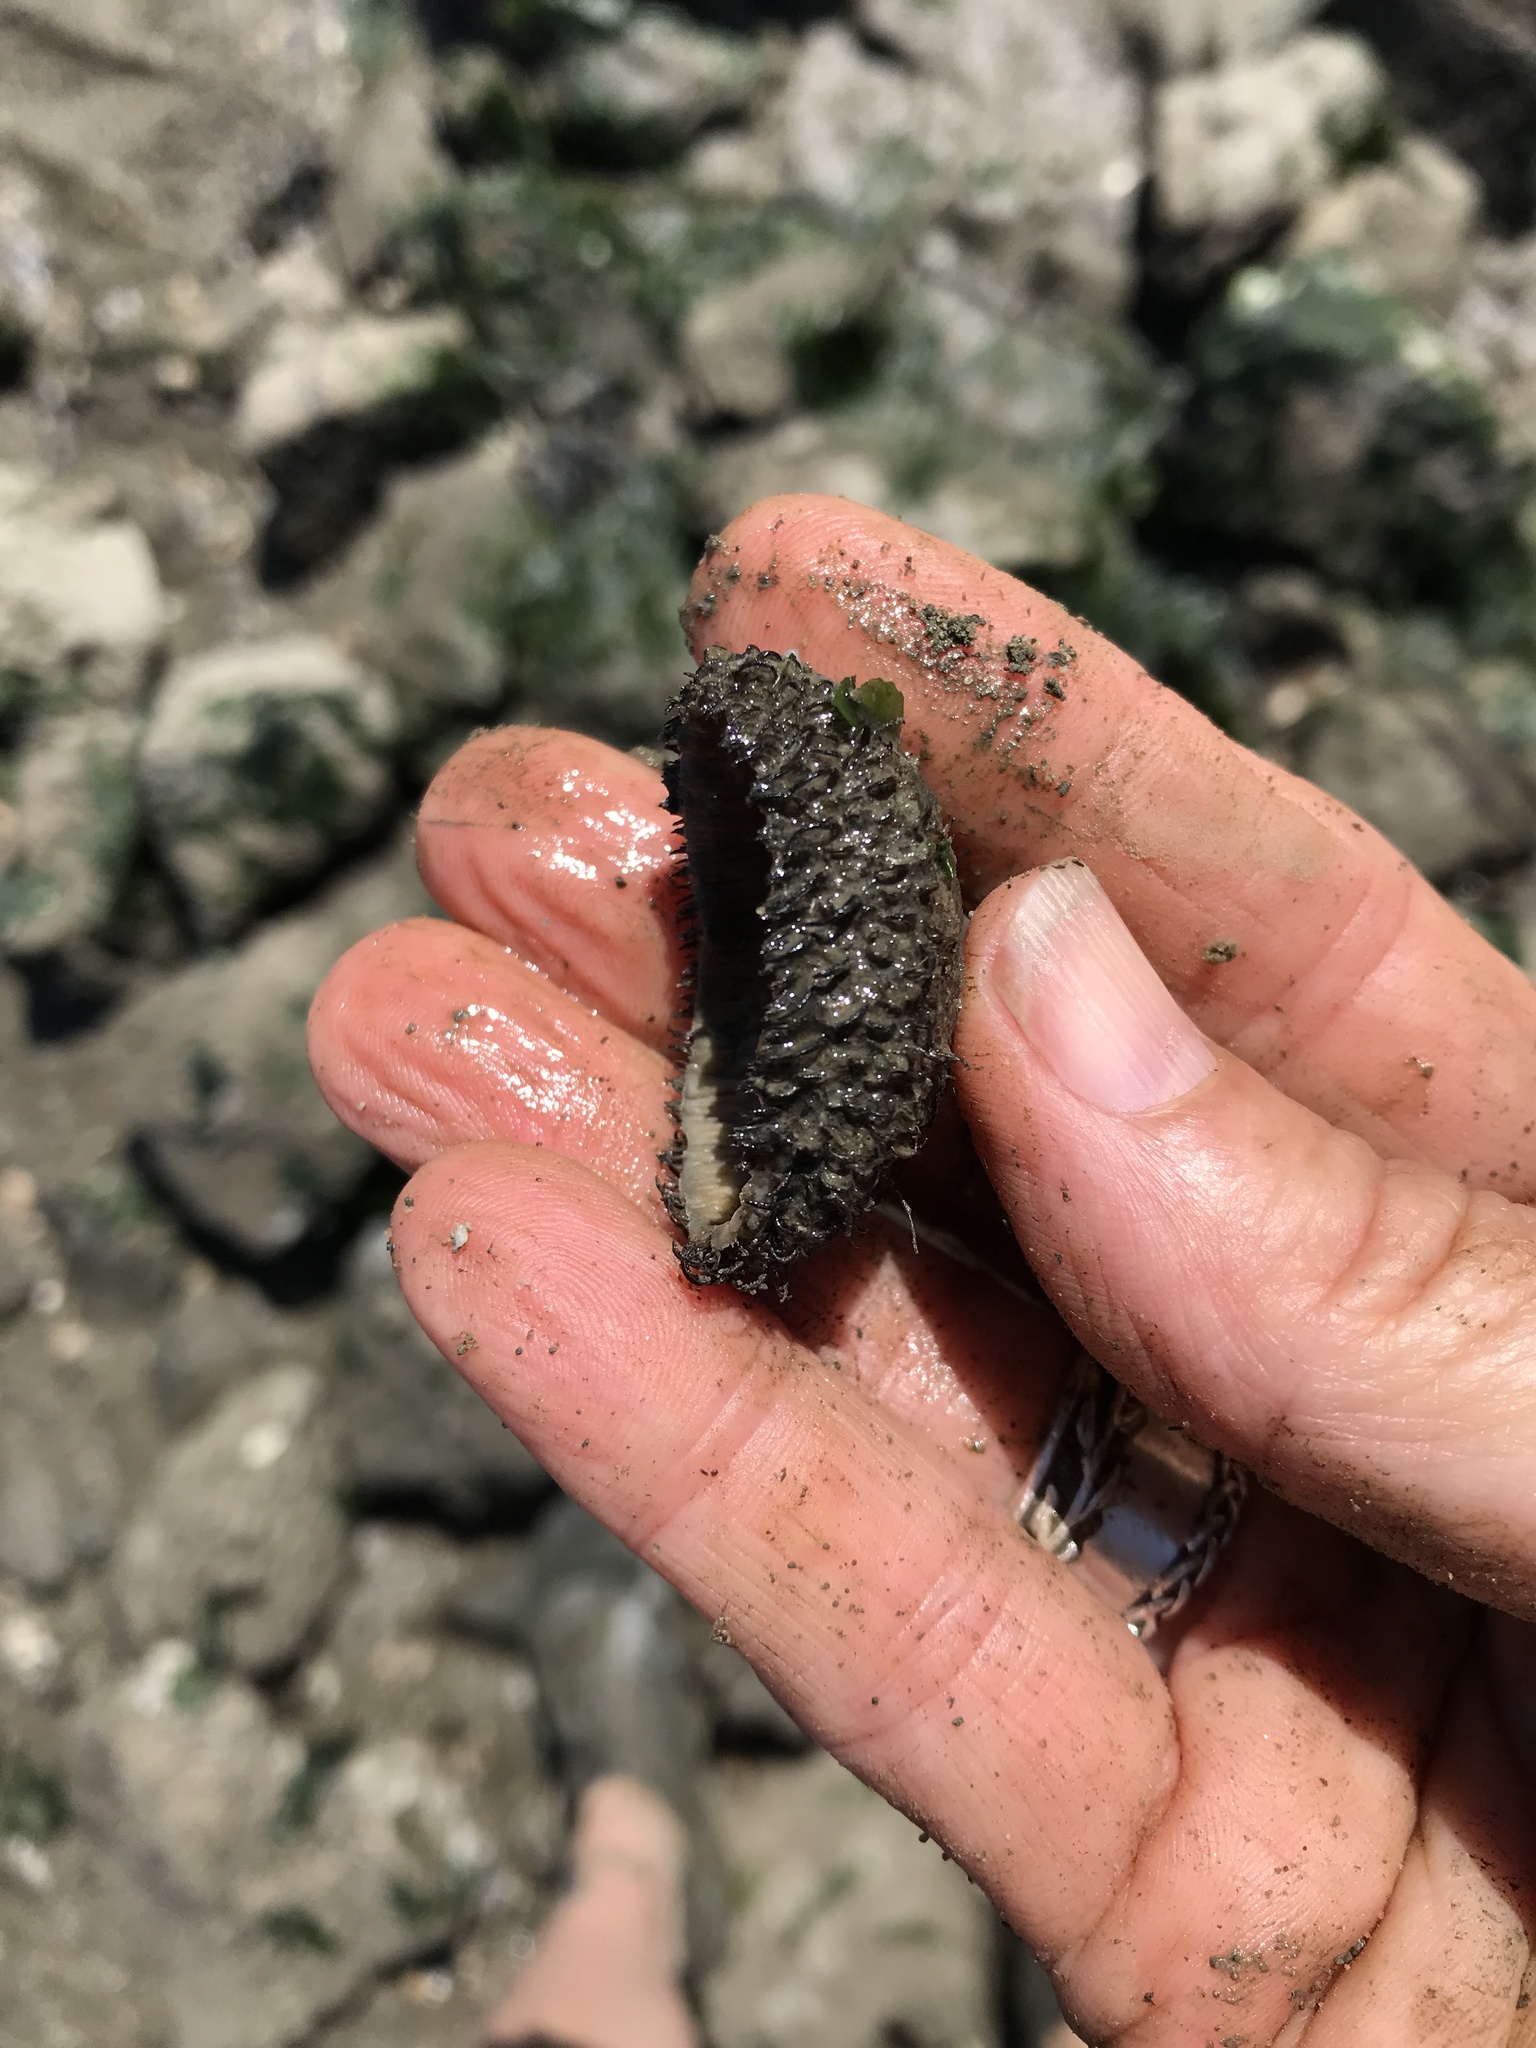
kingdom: Animalia
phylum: Mollusca
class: Polyplacophora
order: Chitonida
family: Mopaliidae
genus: Mopalia
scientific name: Mopalia muscosa
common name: Mossy chiton
